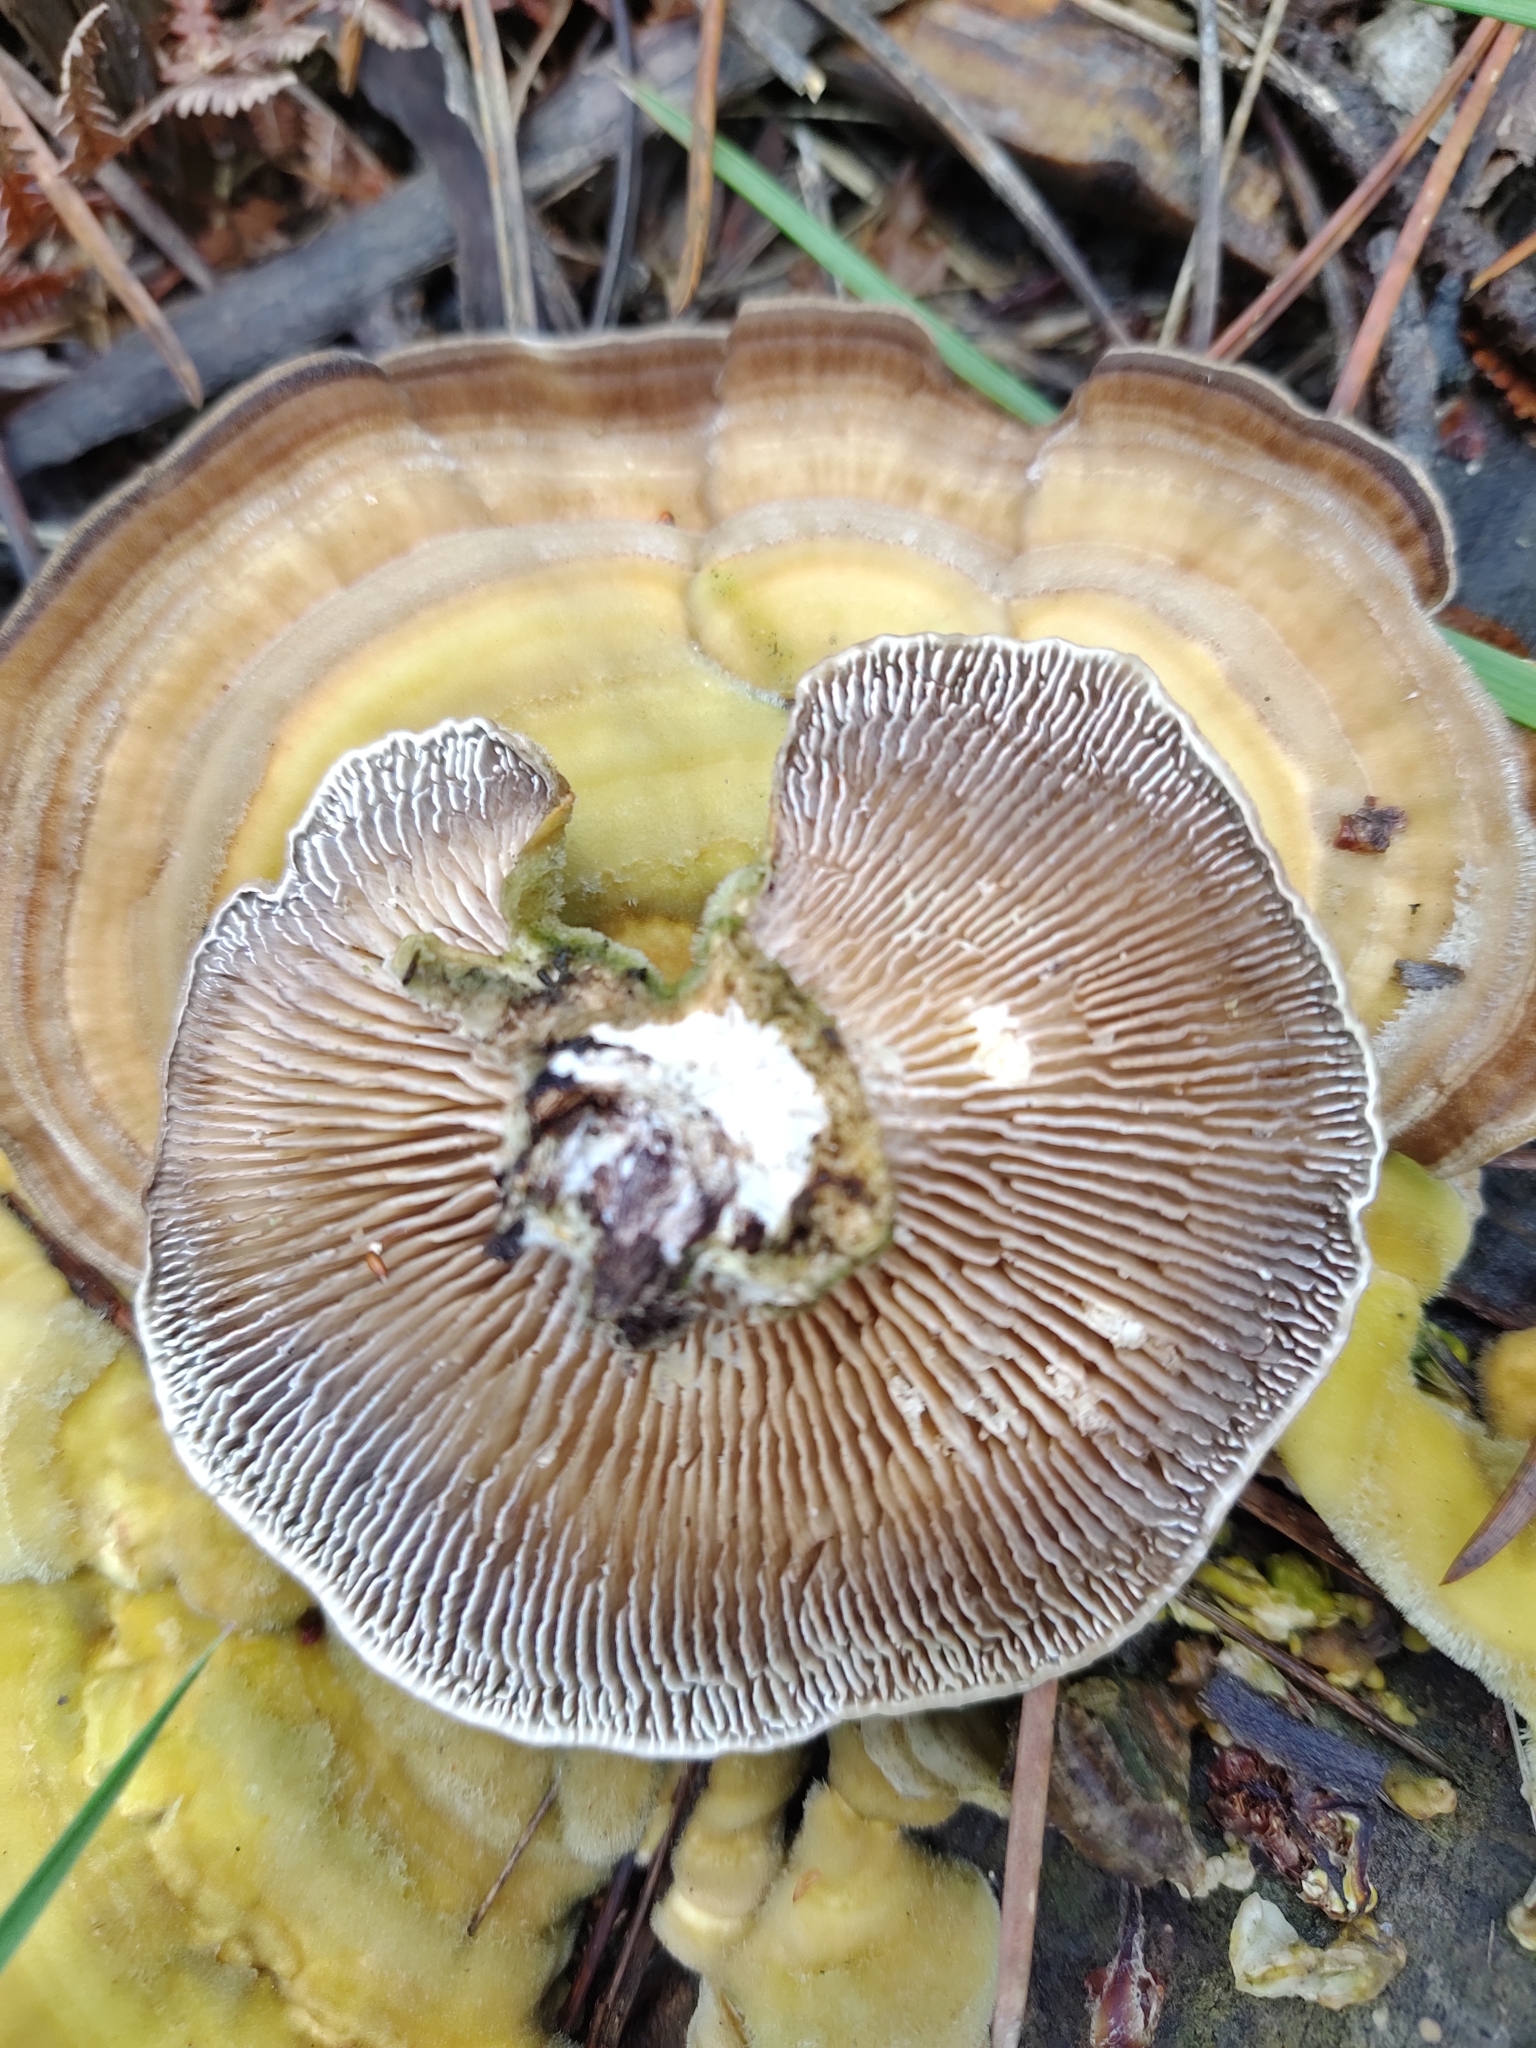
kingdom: Fungi
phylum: Basidiomycota
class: Agaricomycetes
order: Polyporales
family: Polyporaceae
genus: Lenzites
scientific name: Lenzites betulinus
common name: Birch mazegill
